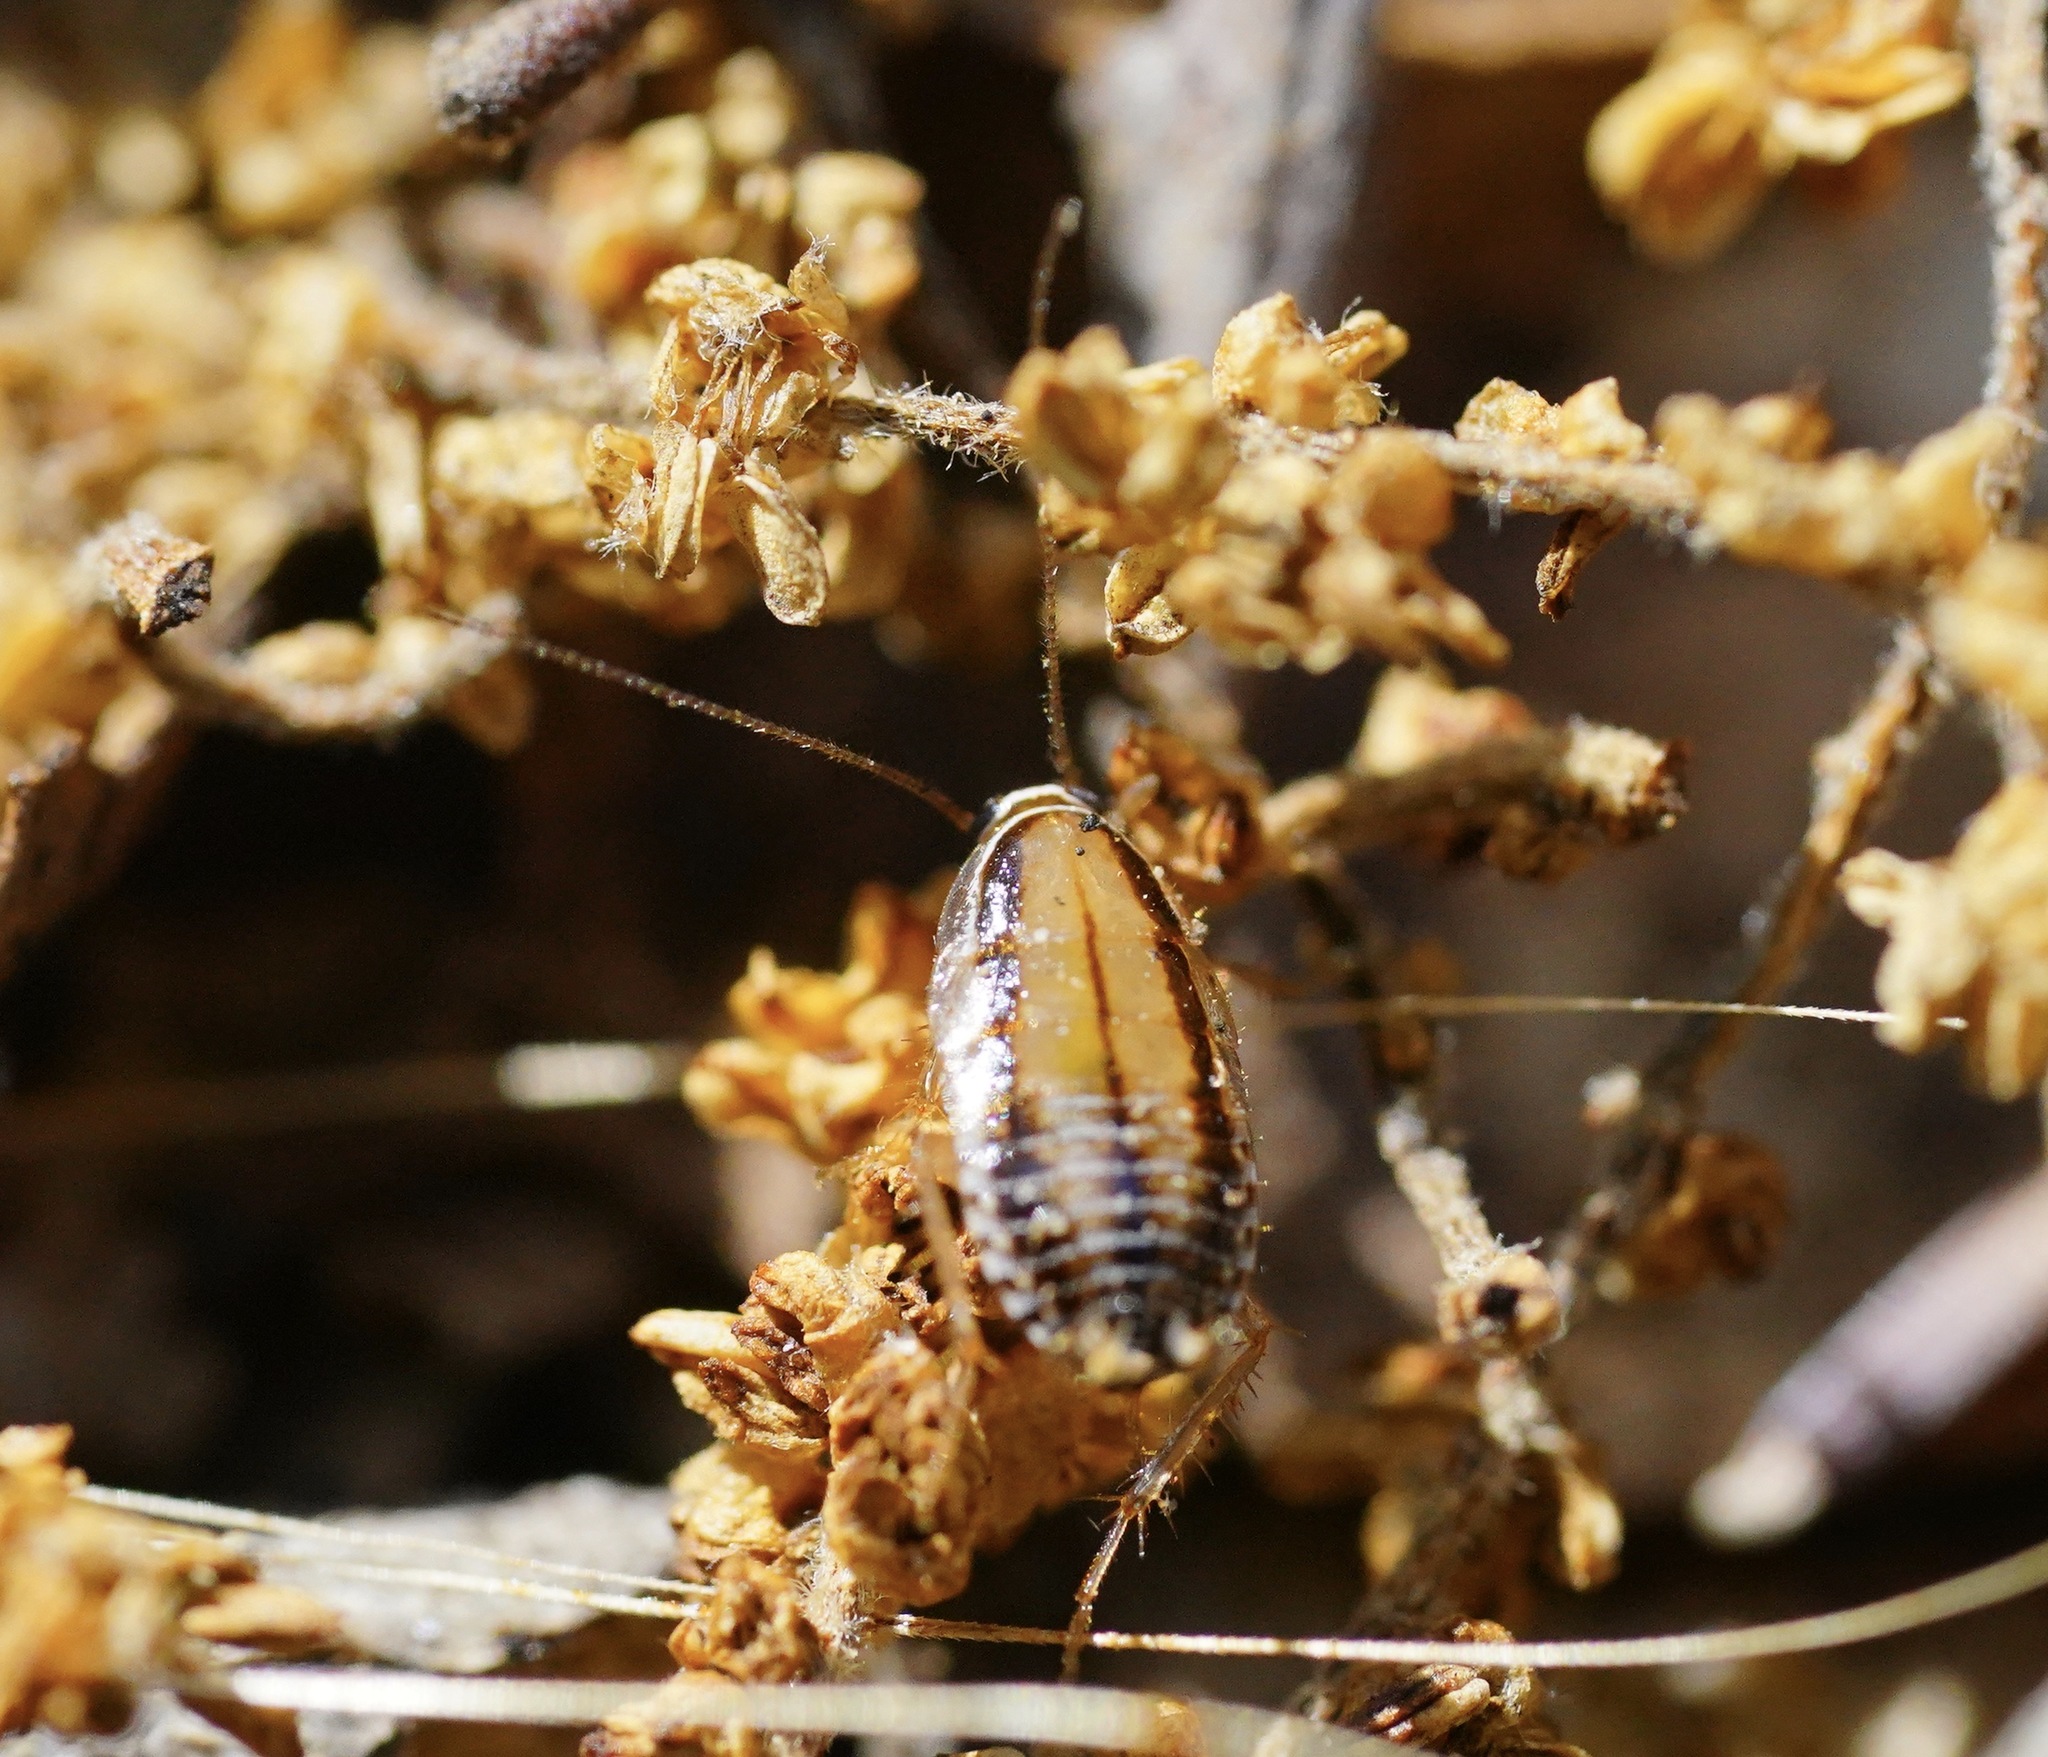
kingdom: Animalia
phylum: Arthropoda
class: Insecta
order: Blattodea
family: Ectobiidae
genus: Luridiblatta
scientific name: Luridiblatta trivittata
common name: Three-lined cockroach
